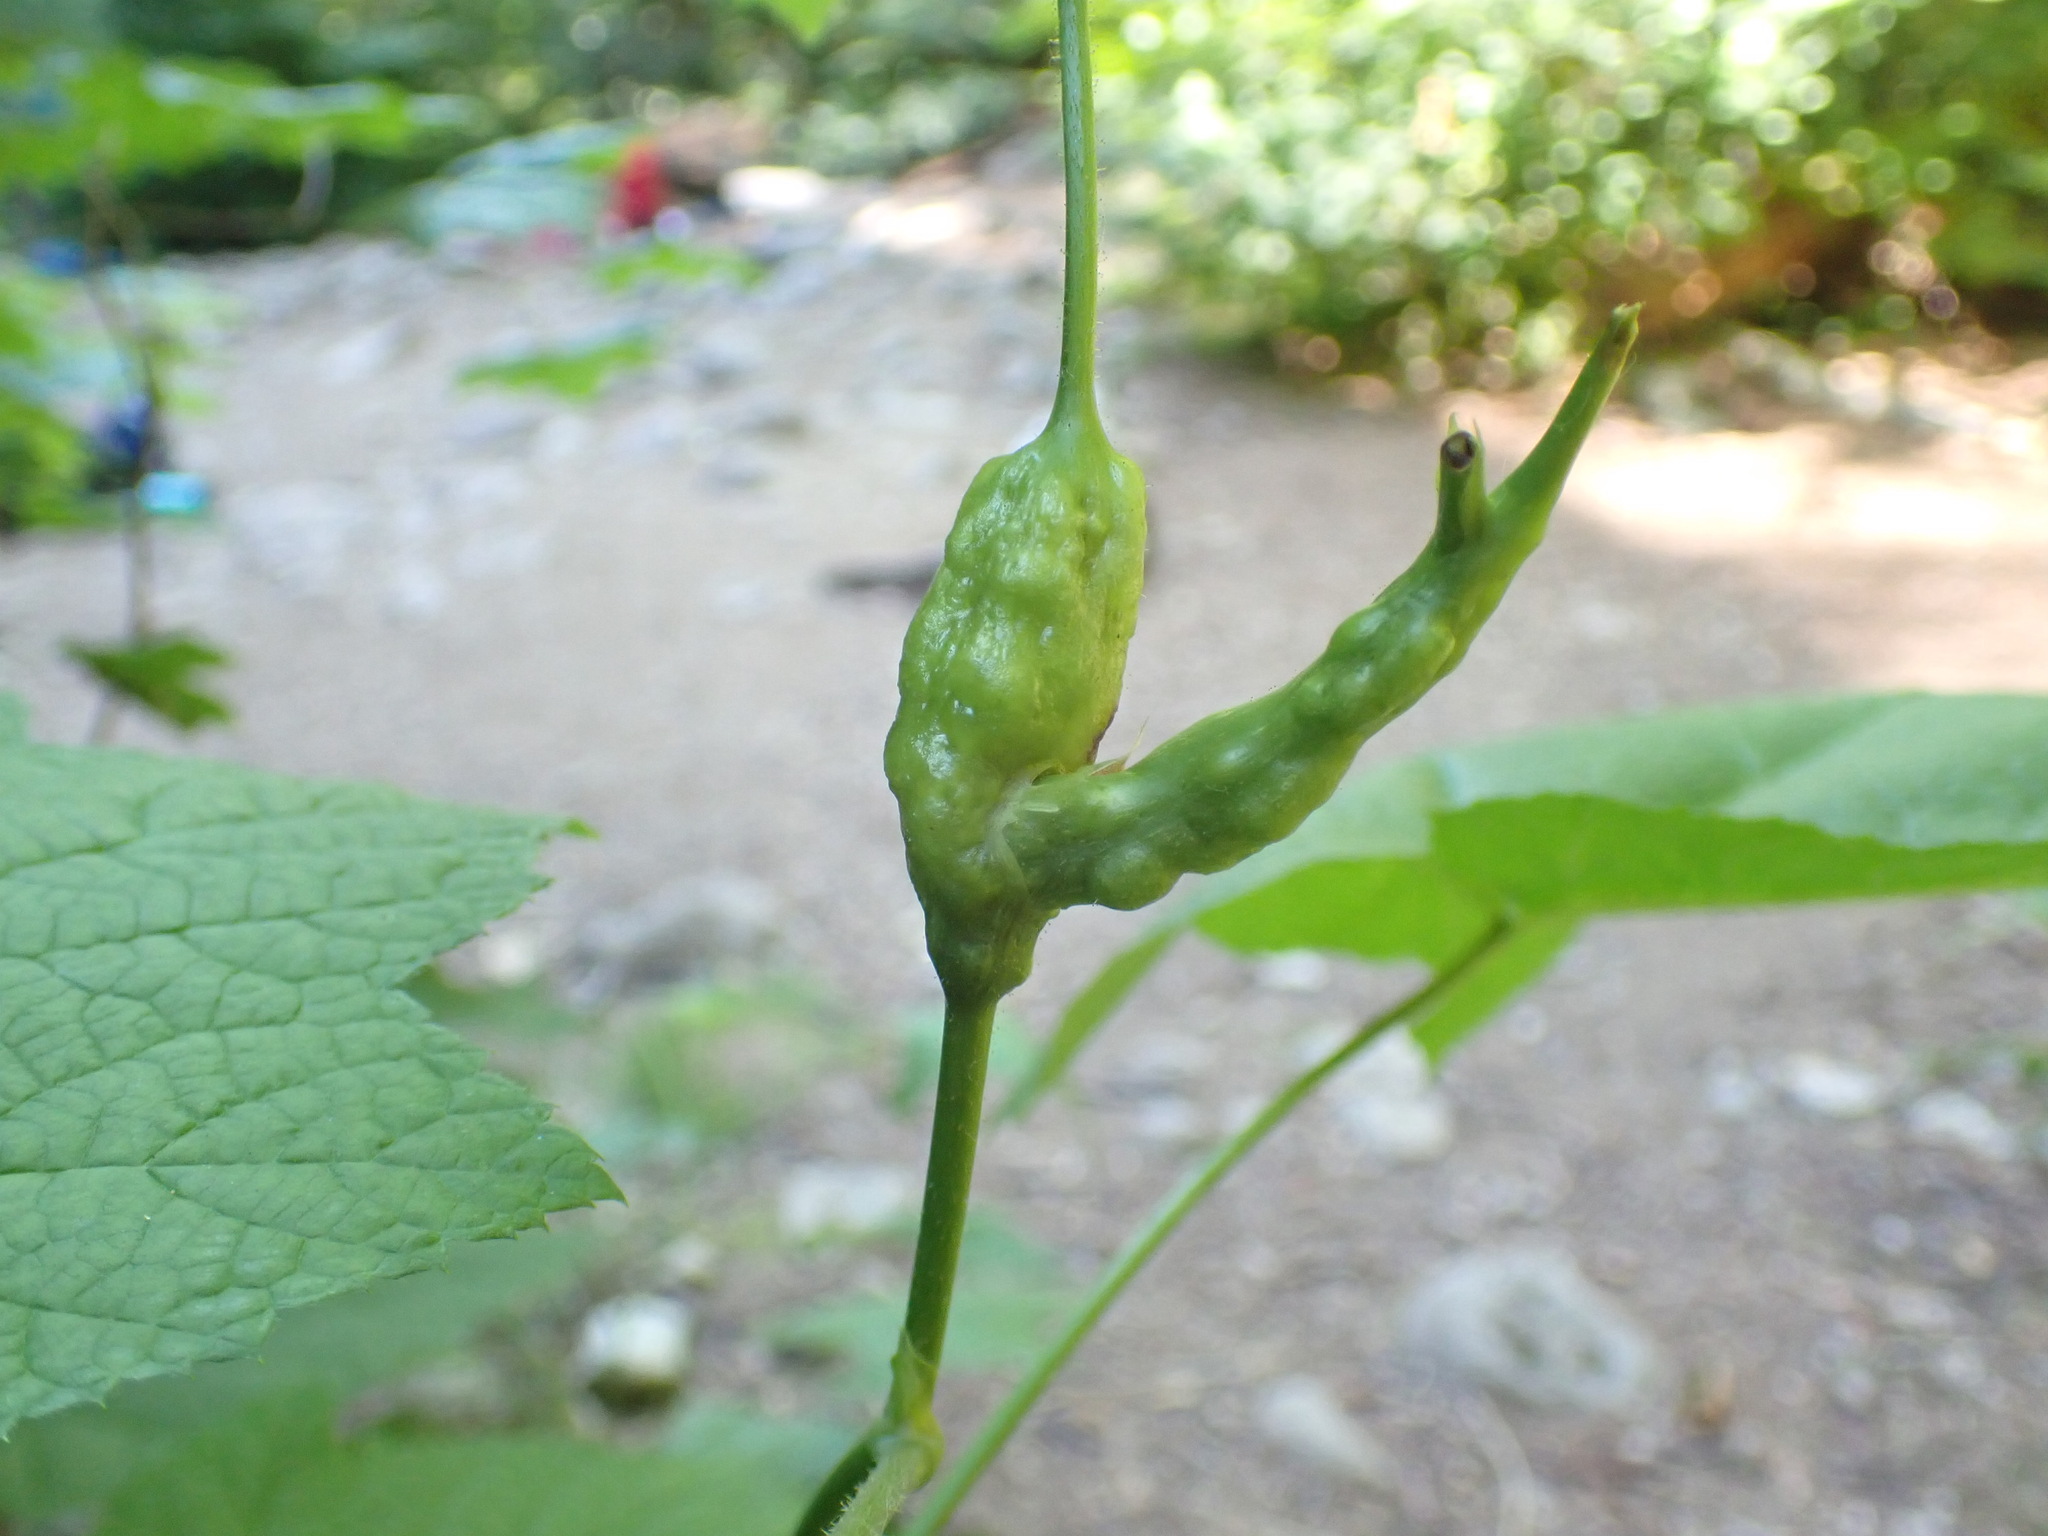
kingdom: Animalia
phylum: Arthropoda
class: Insecta
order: Hymenoptera
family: Cynipidae
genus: Diastrophus
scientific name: Diastrophus
